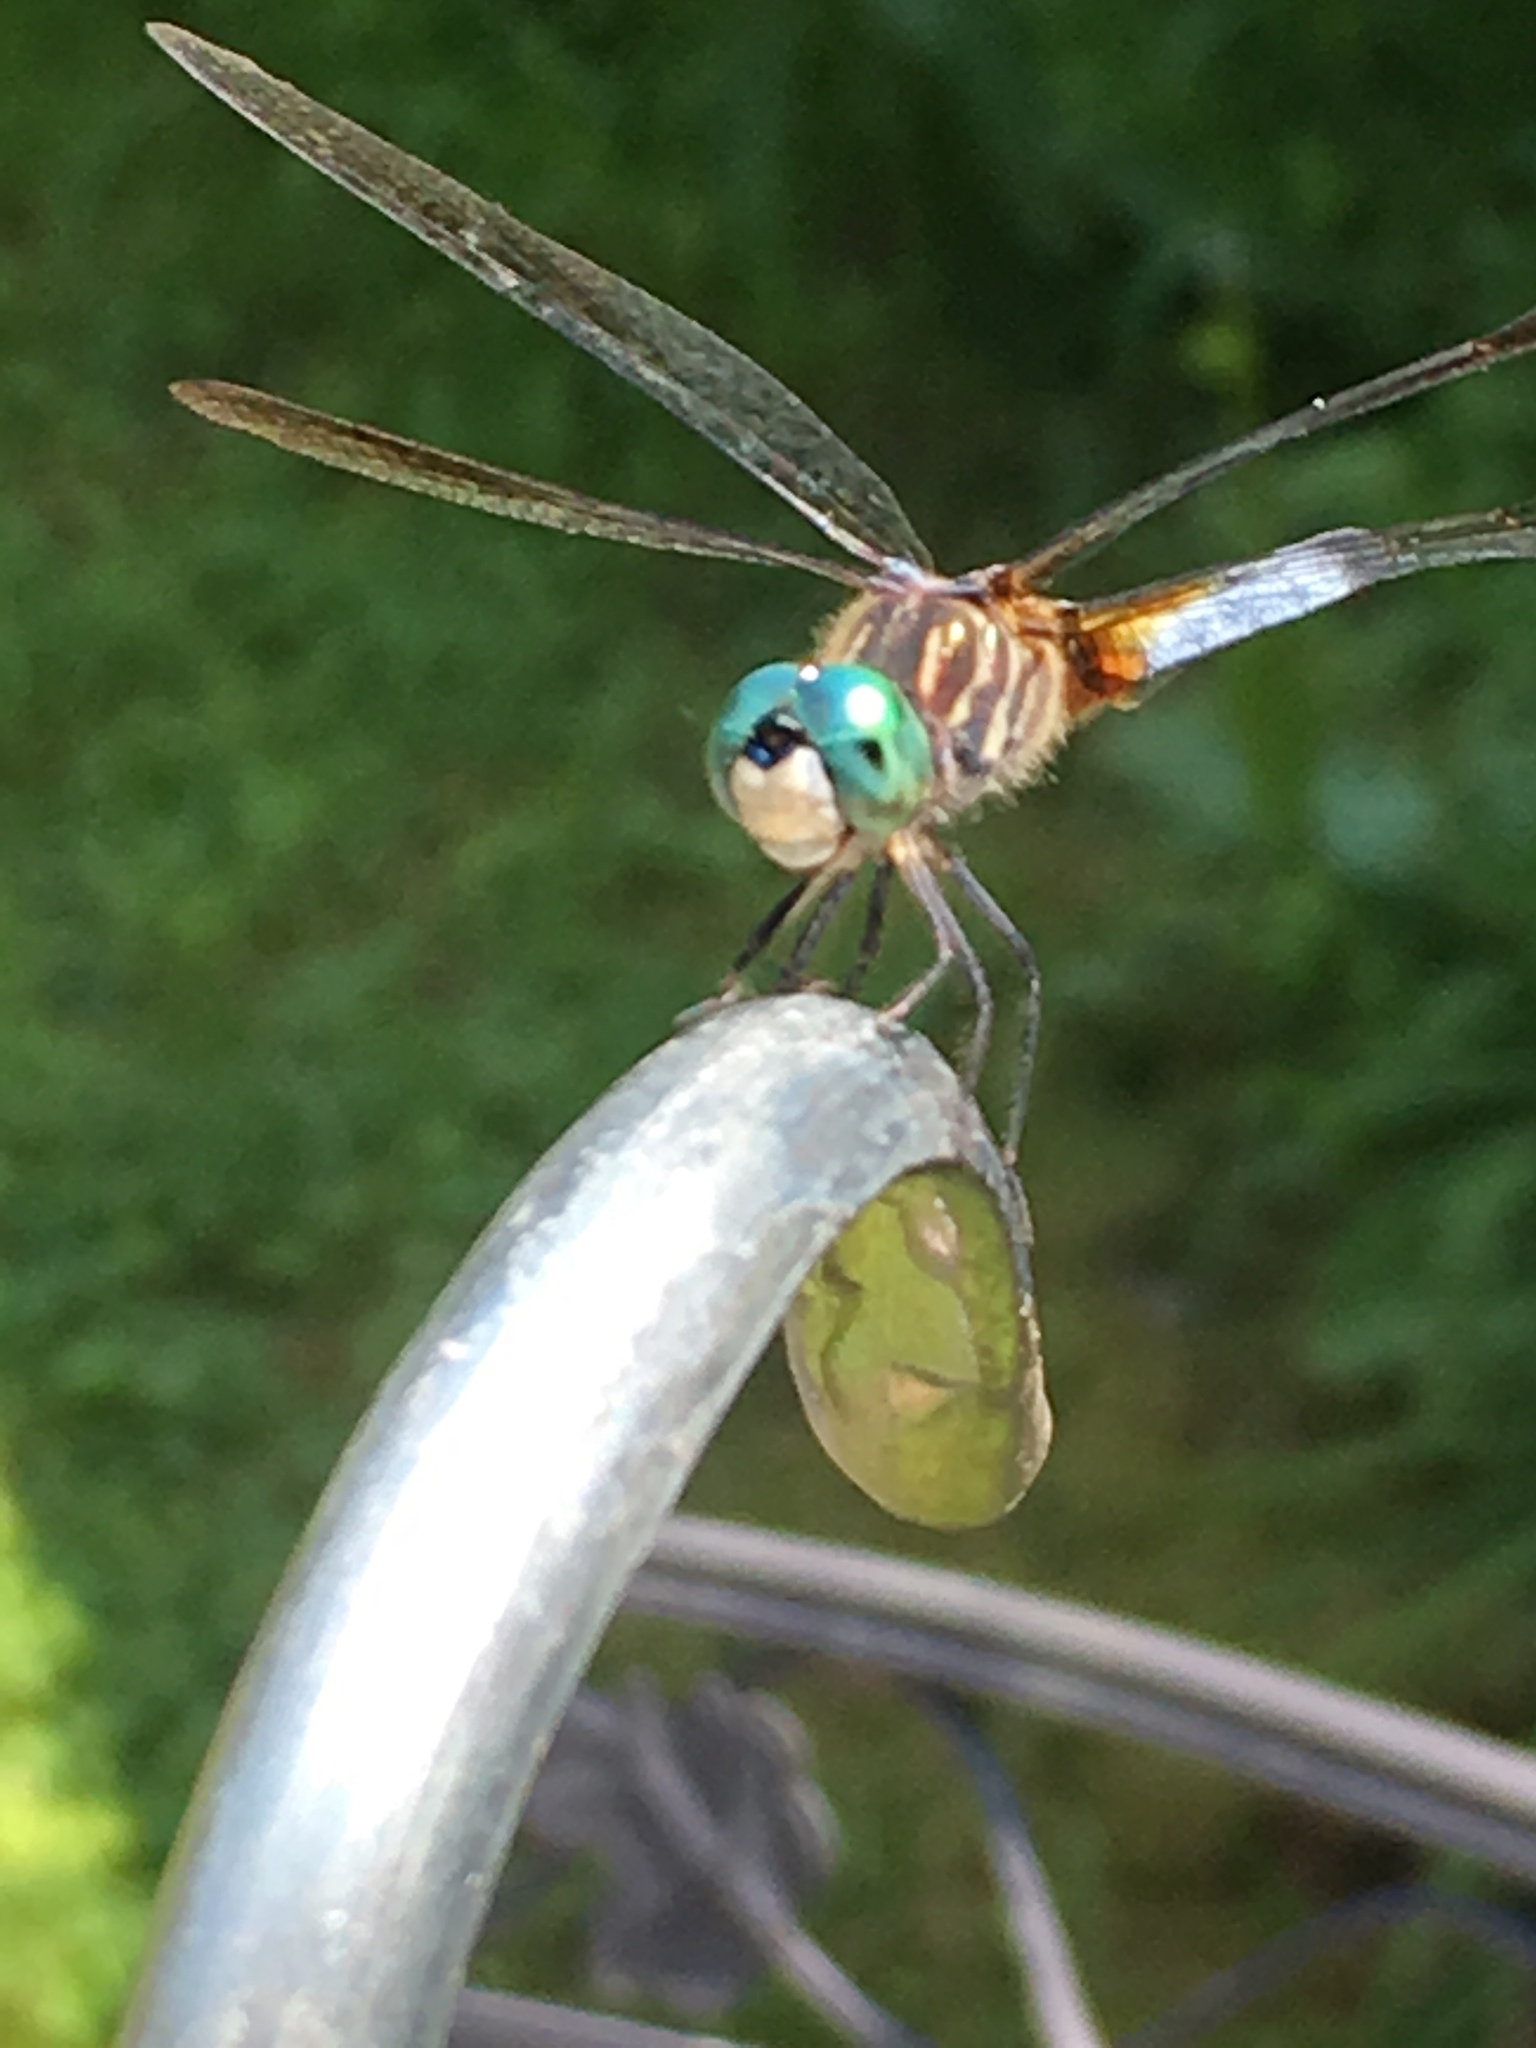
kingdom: Animalia
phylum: Arthropoda
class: Insecta
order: Odonata
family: Libellulidae
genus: Pachydiplax
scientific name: Pachydiplax longipennis
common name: Blue dasher
